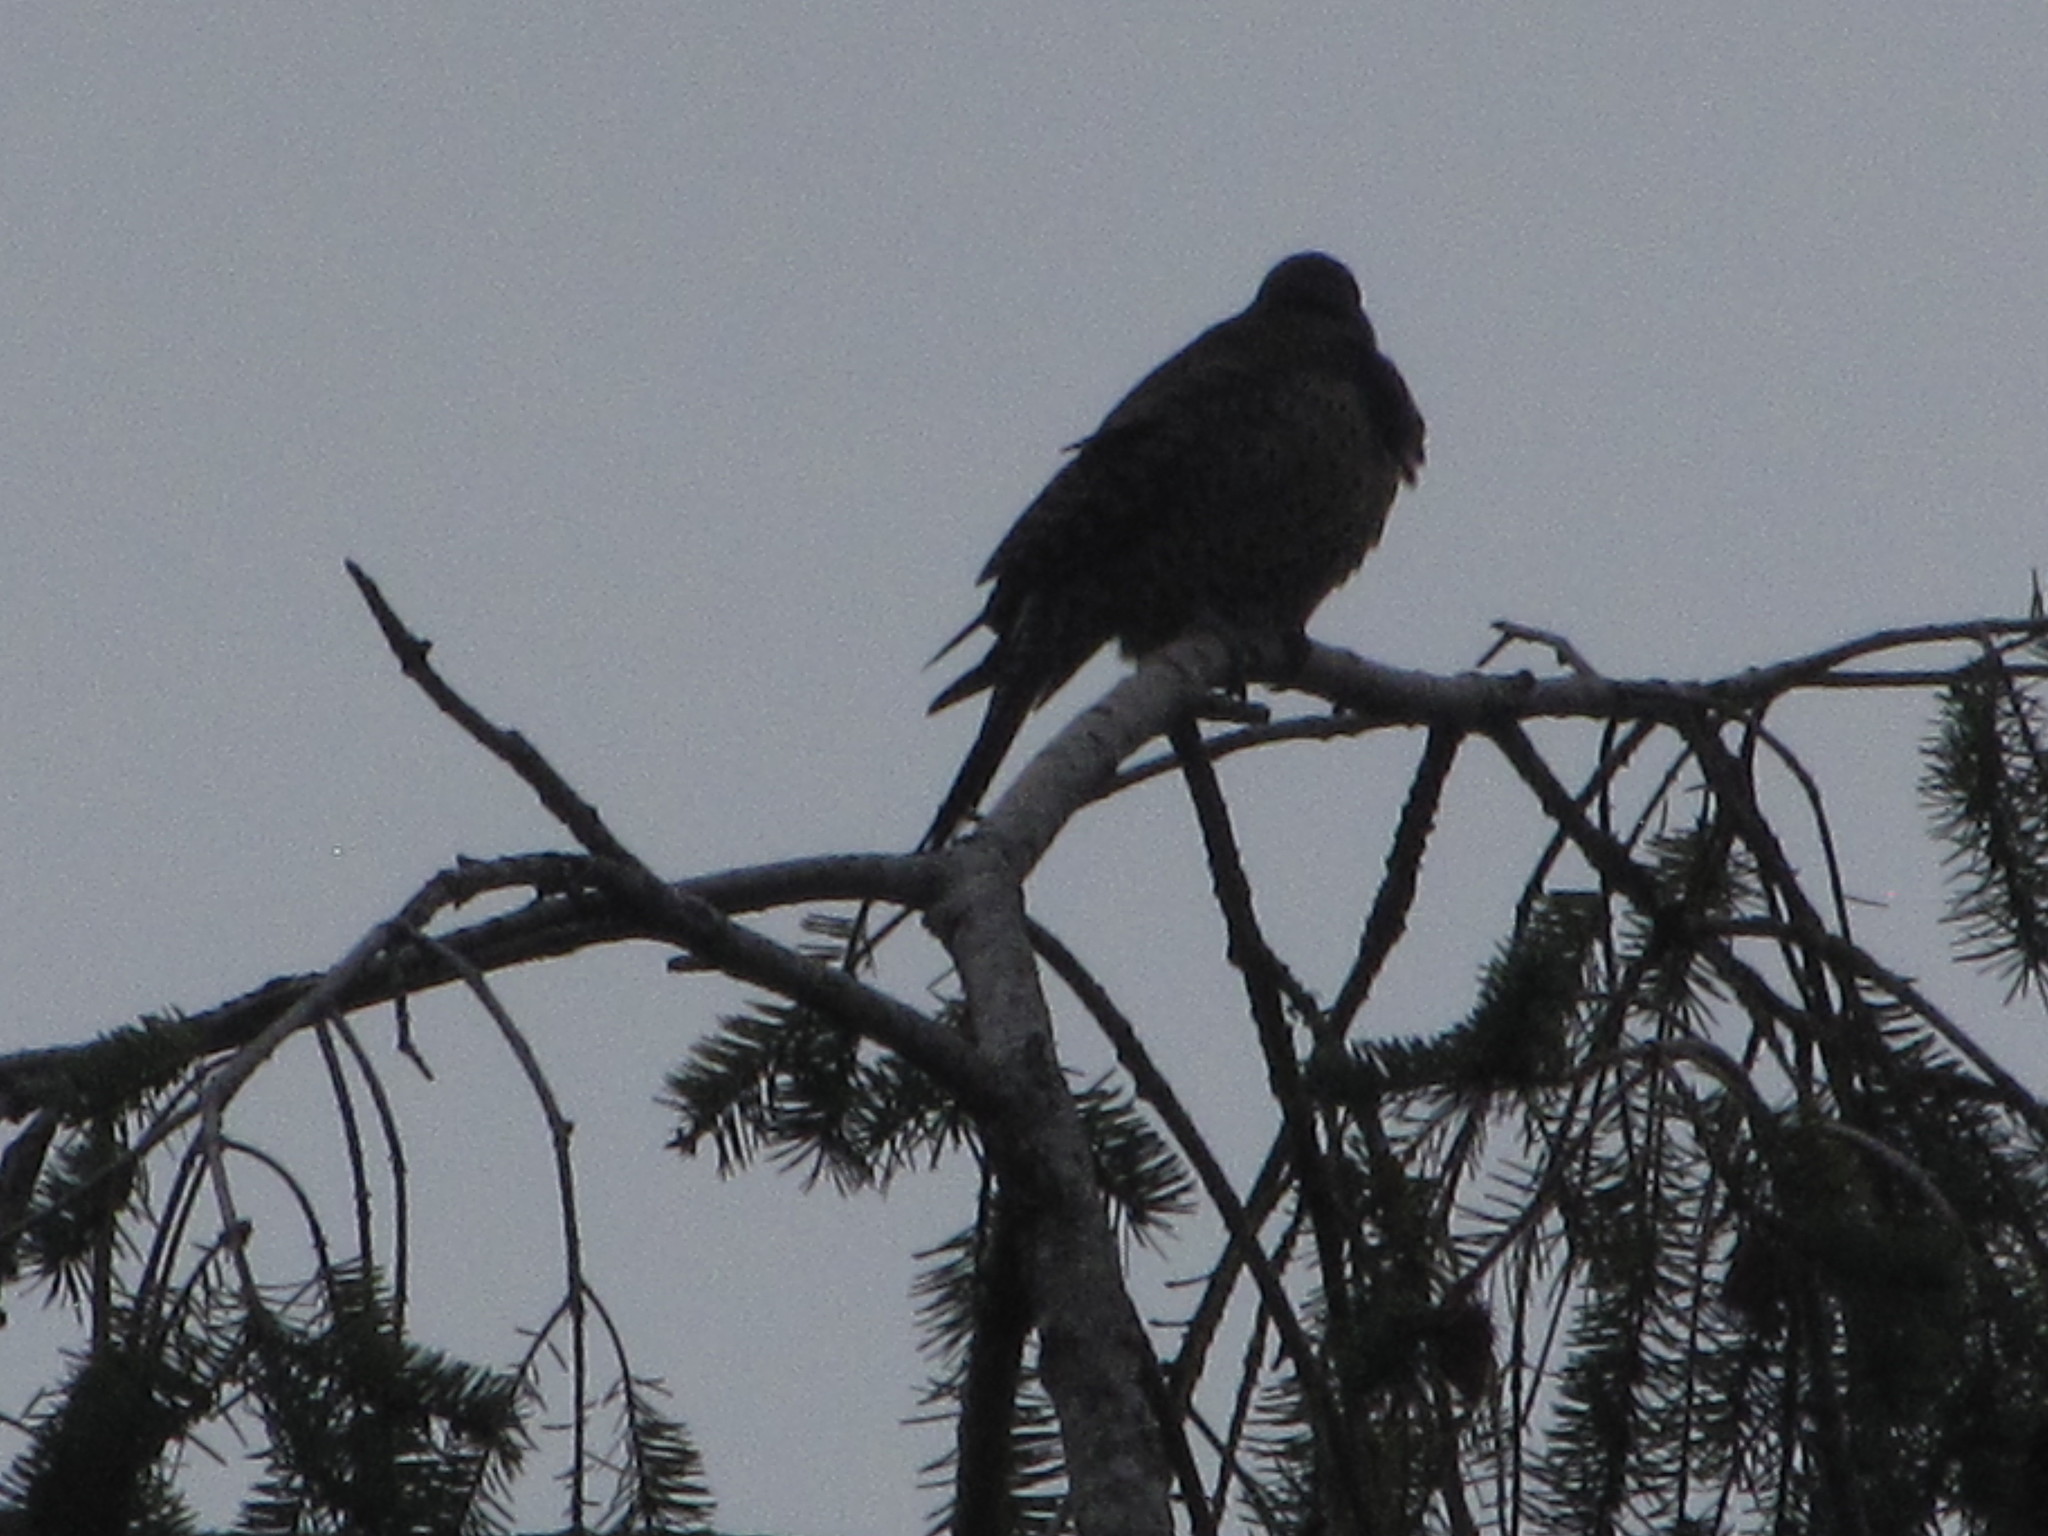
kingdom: Animalia
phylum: Chordata
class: Aves
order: Piciformes
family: Picidae
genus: Colaptes
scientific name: Colaptes auratus
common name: Northern flicker
